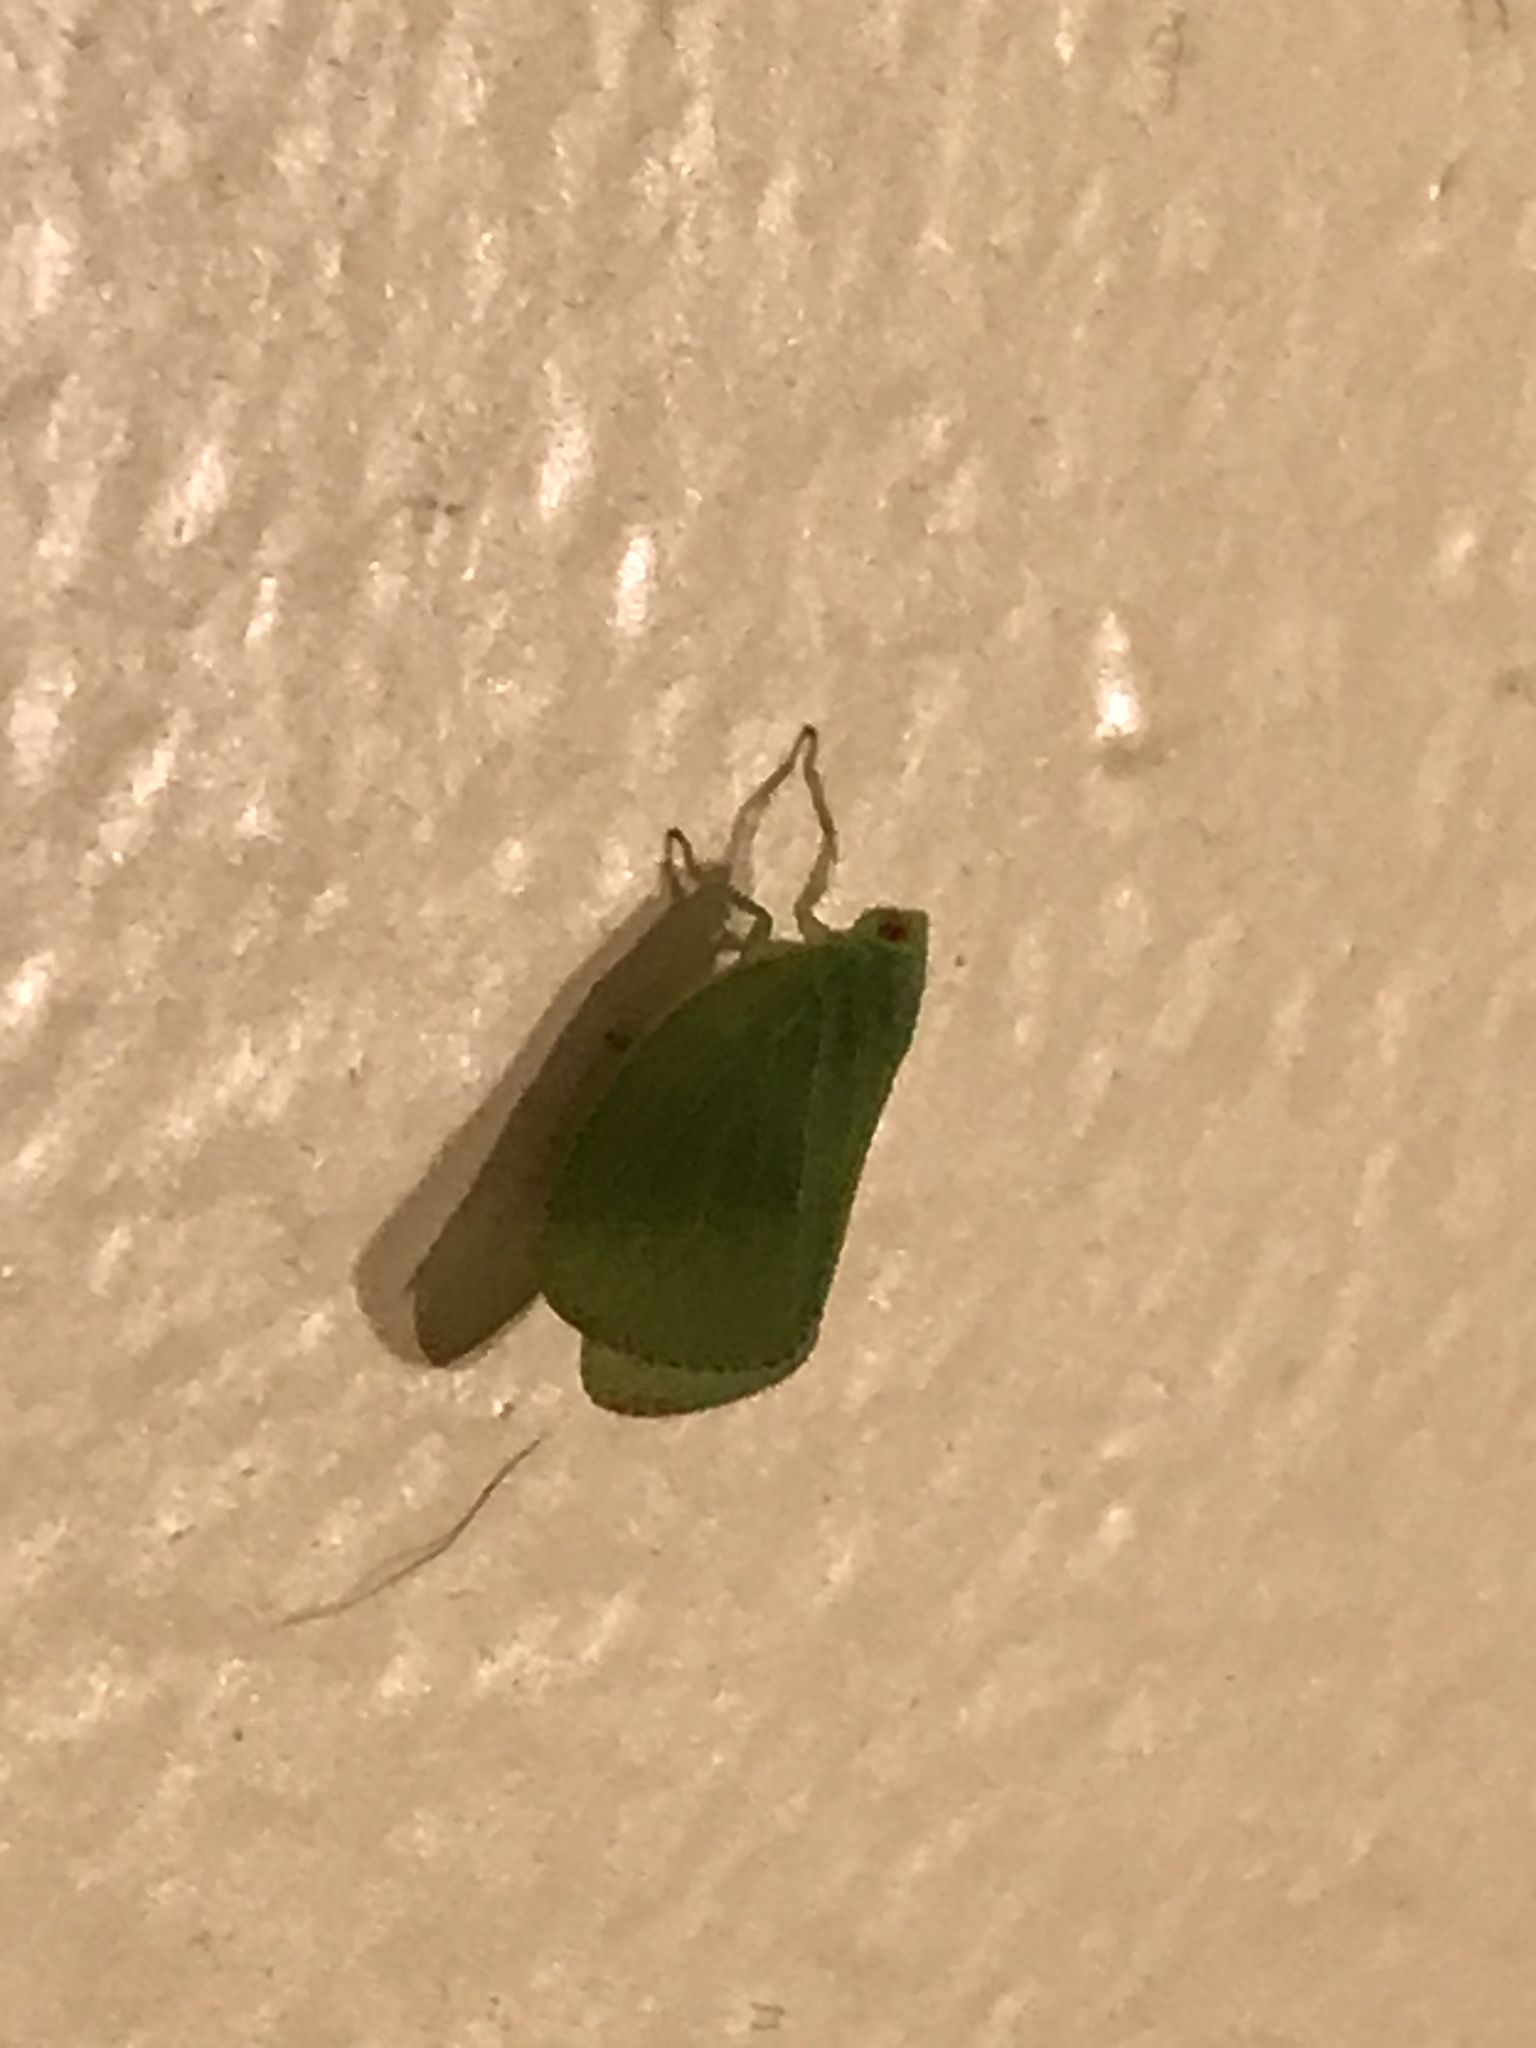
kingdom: Animalia
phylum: Arthropoda
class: Insecta
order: Hemiptera
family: Acanaloniidae
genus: Acanalonia
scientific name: Acanalonia conica
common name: Green cone-headed planthopper
